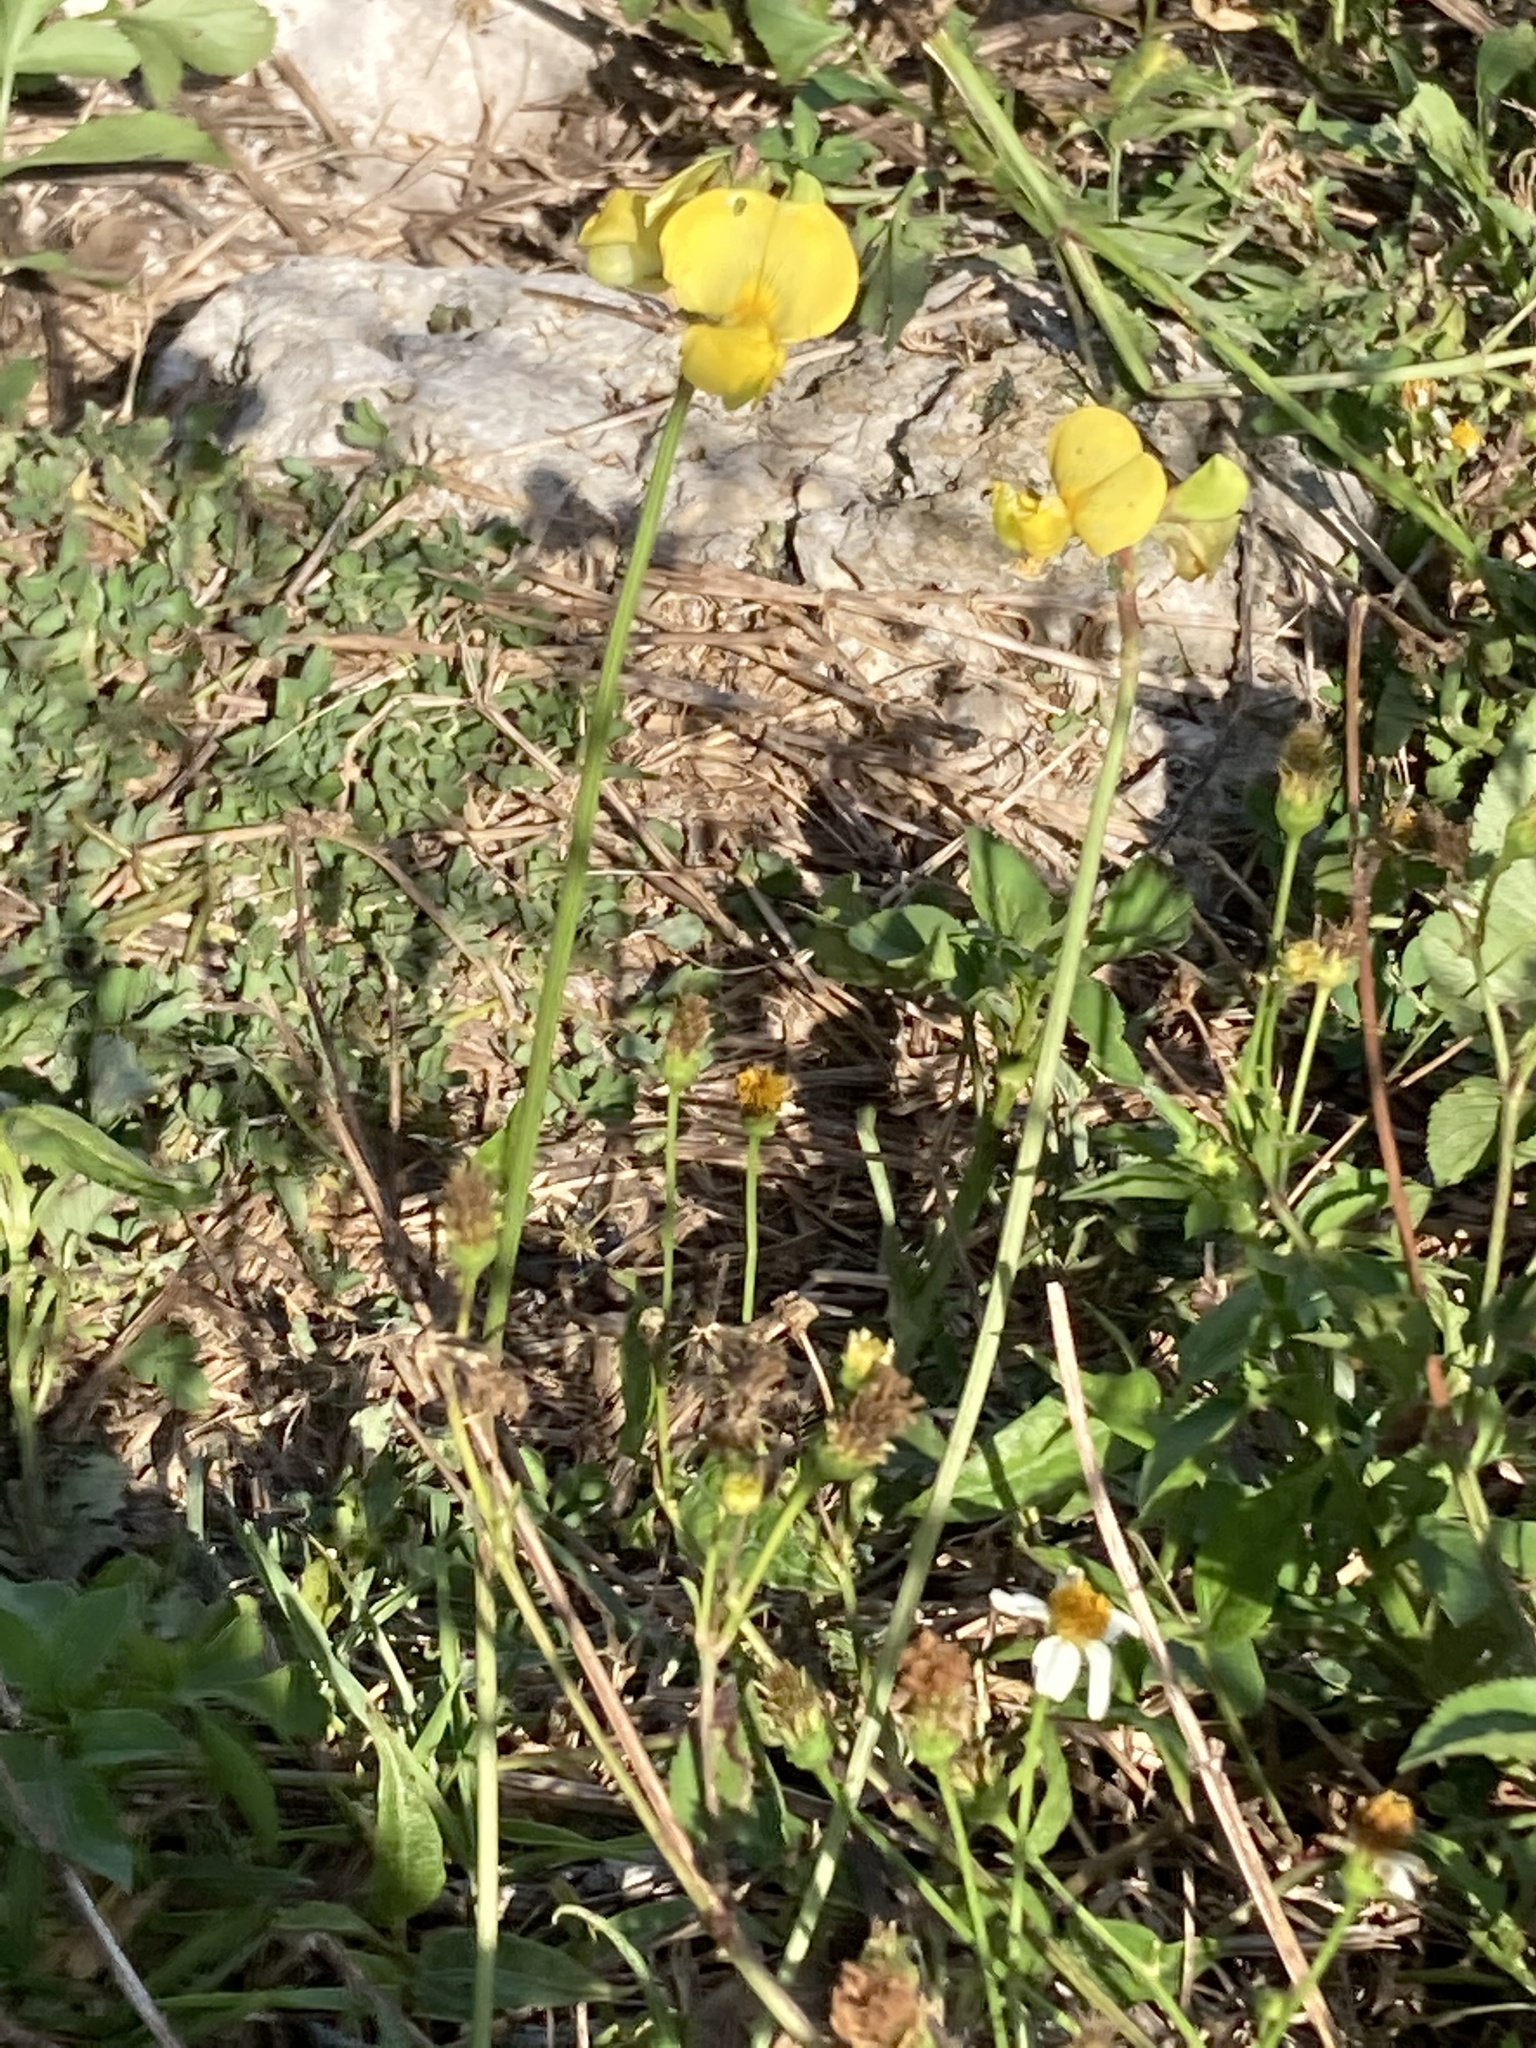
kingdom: Plantae
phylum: Tracheophyta
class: Magnoliopsida
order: Fabales
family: Fabaceae
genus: Vigna
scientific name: Vigna luteola
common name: Hairypod cowpea
